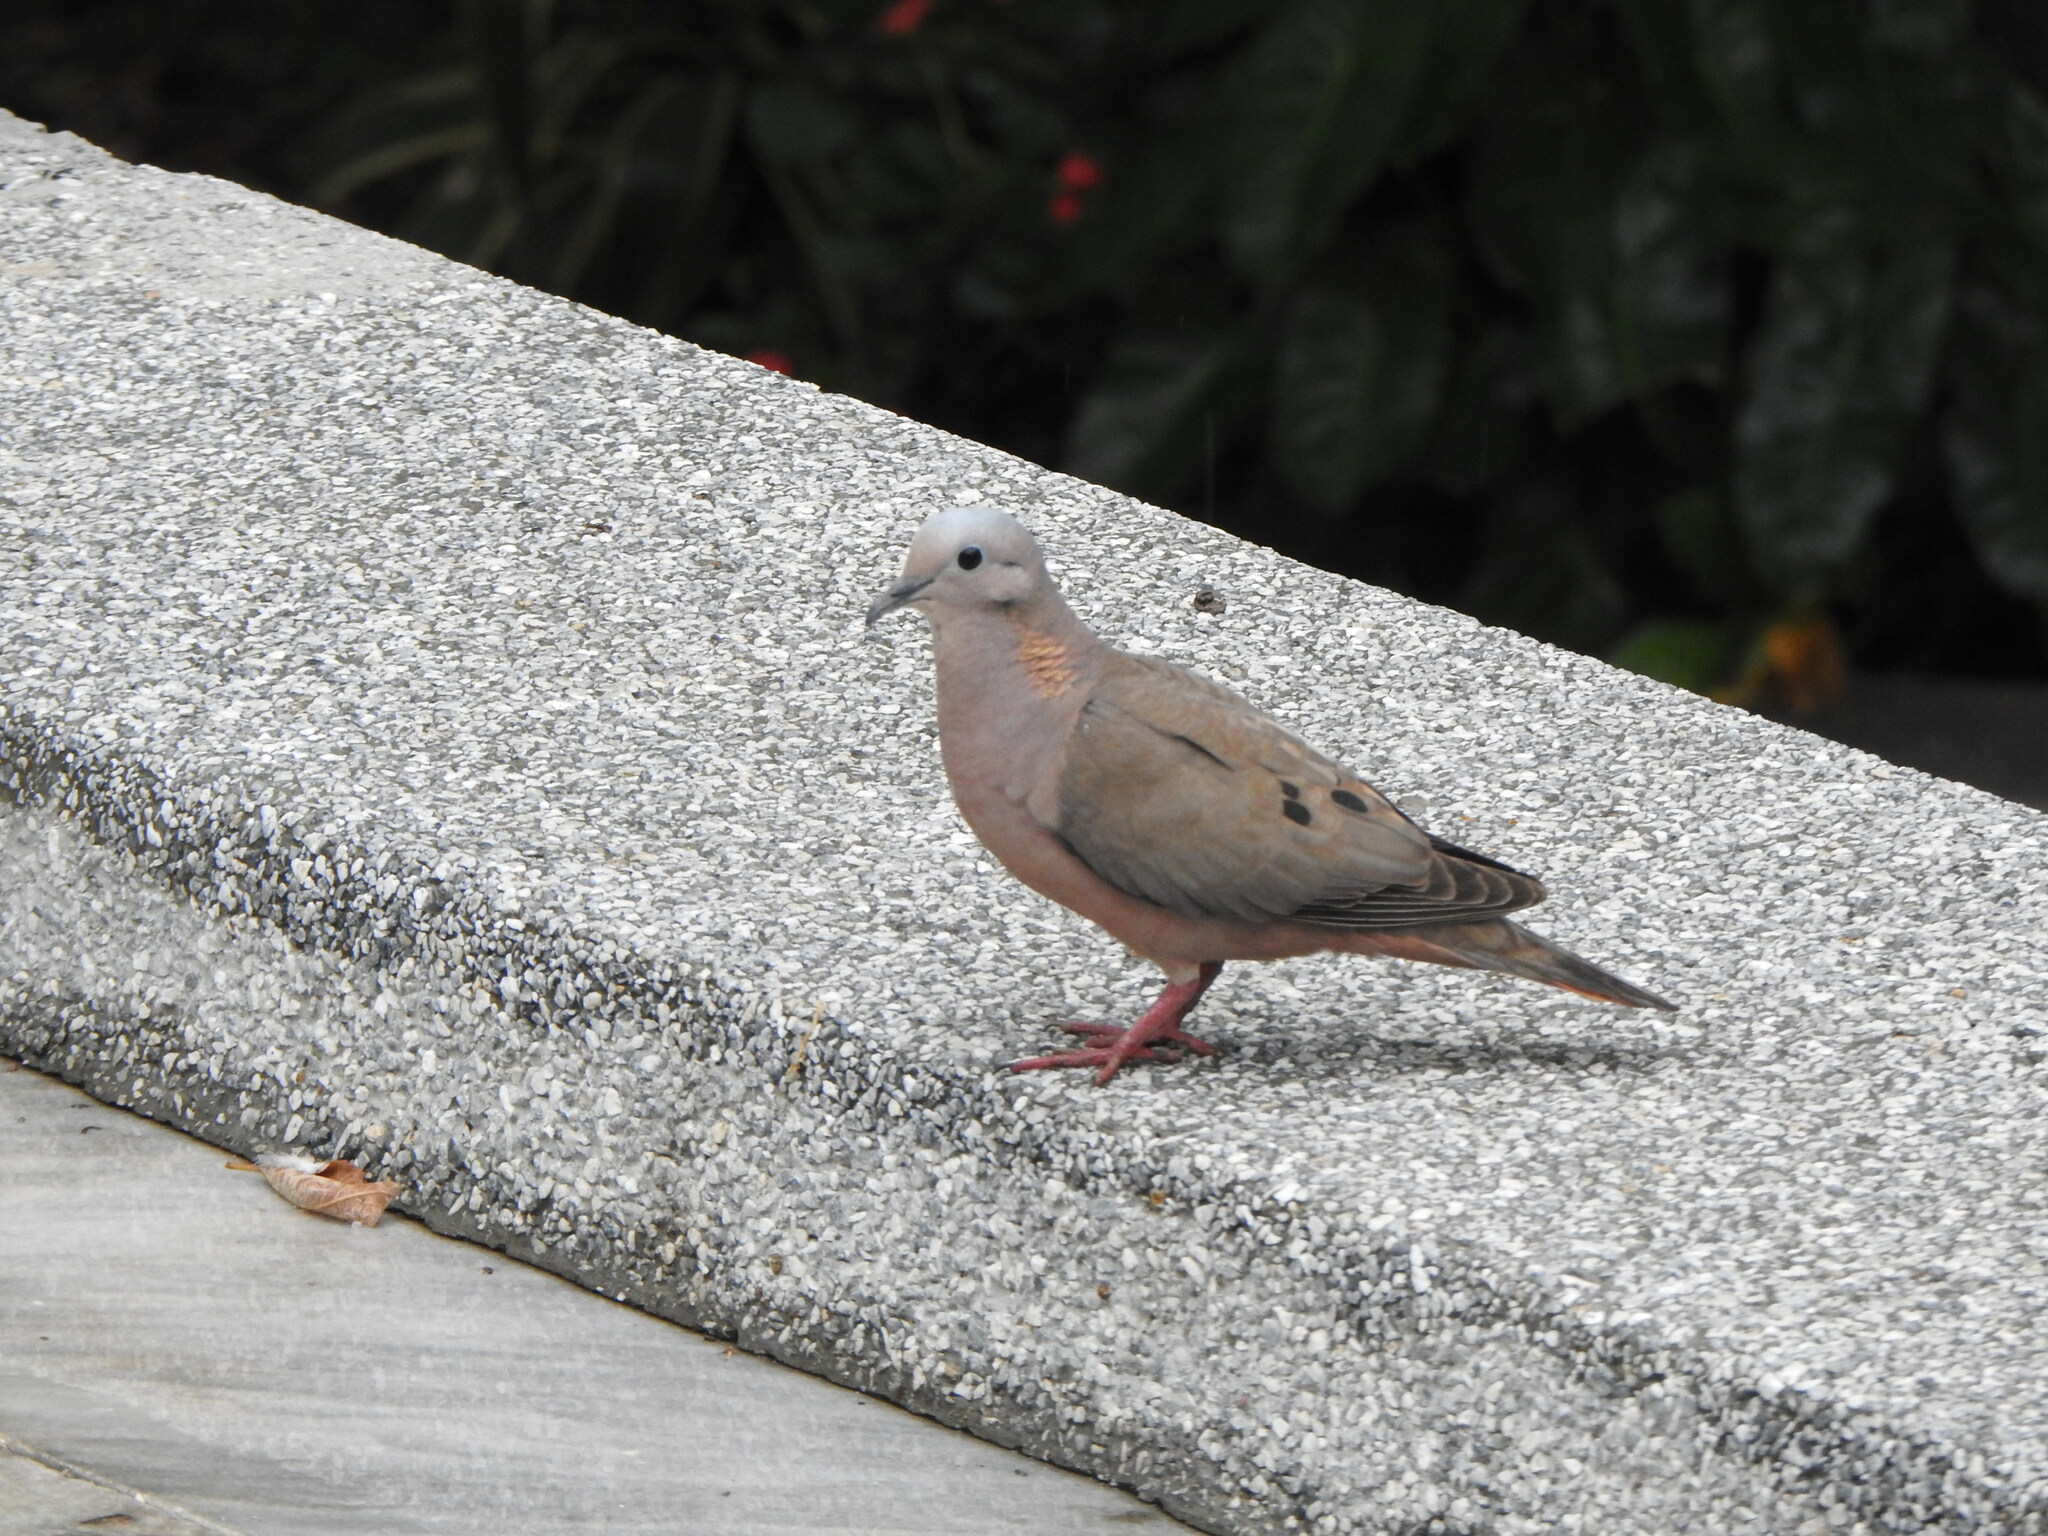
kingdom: Animalia
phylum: Chordata
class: Aves
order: Columbiformes
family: Columbidae
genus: Zenaida
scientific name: Zenaida auriculata
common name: Eared dove
